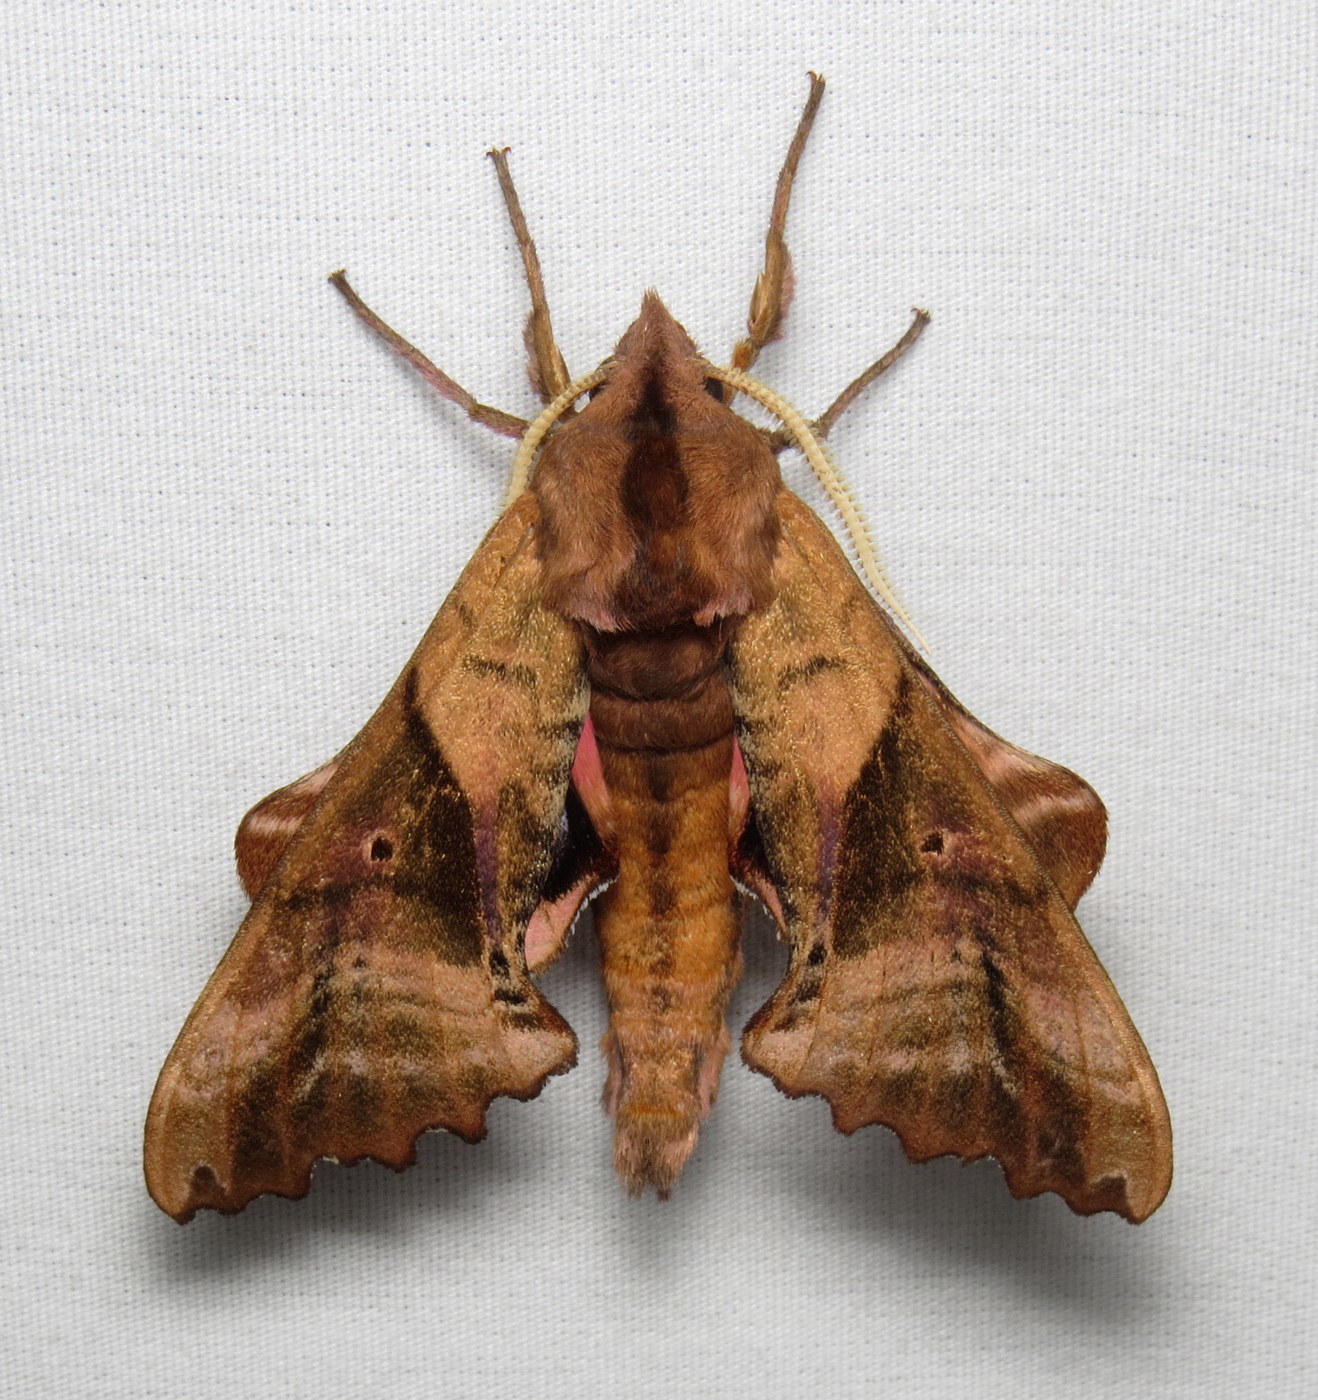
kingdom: Animalia
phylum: Arthropoda
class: Insecta
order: Lepidoptera
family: Sphingidae
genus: Paonias
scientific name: Paonias excaecata
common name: Blind-eyed sphinx
